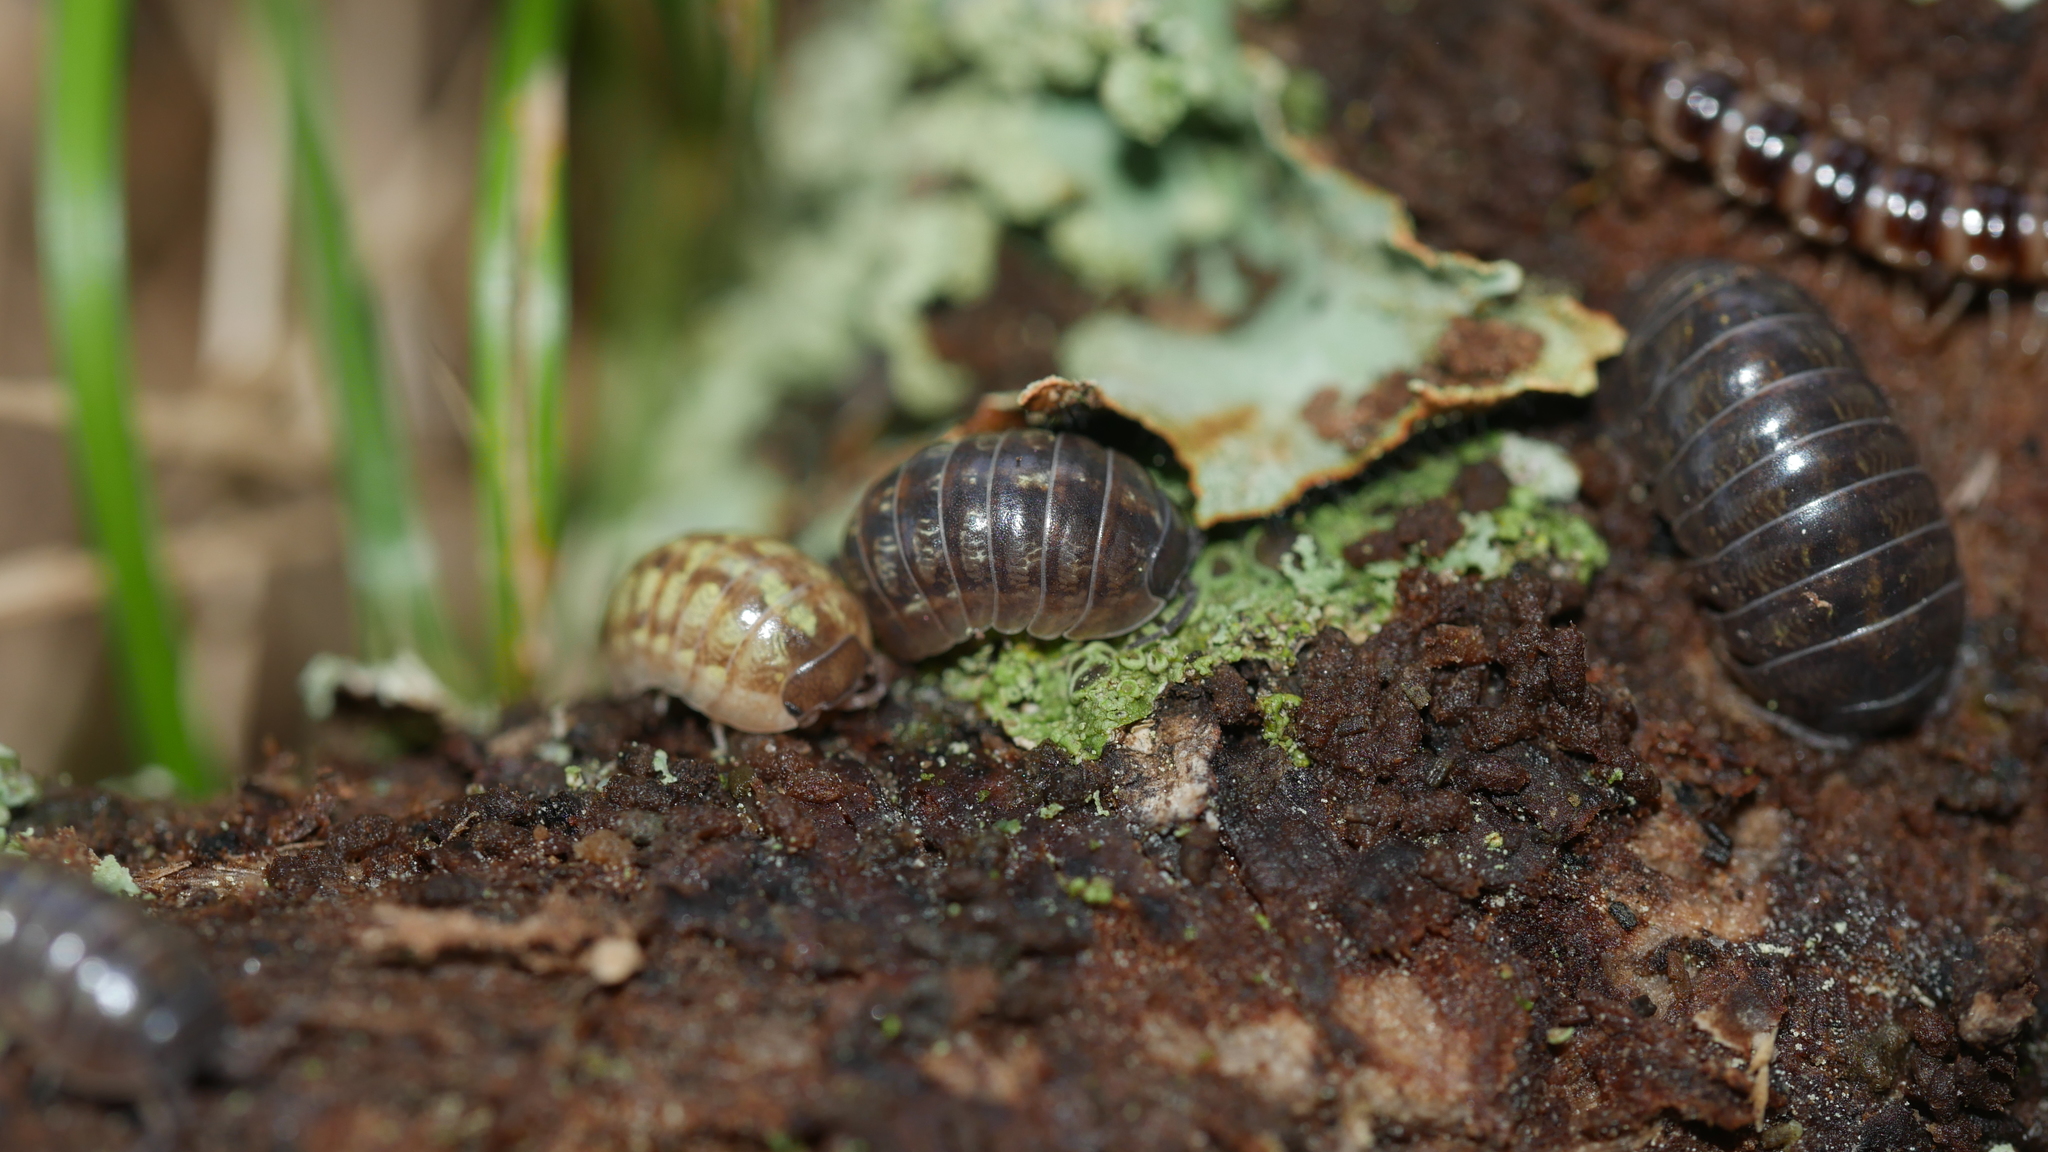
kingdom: Animalia
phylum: Arthropoda
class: Malacostraca
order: Isopoda
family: Armadillidiidae
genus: Armadillidium
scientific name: Armadillidium vulgare
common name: Common pill woodlouse
